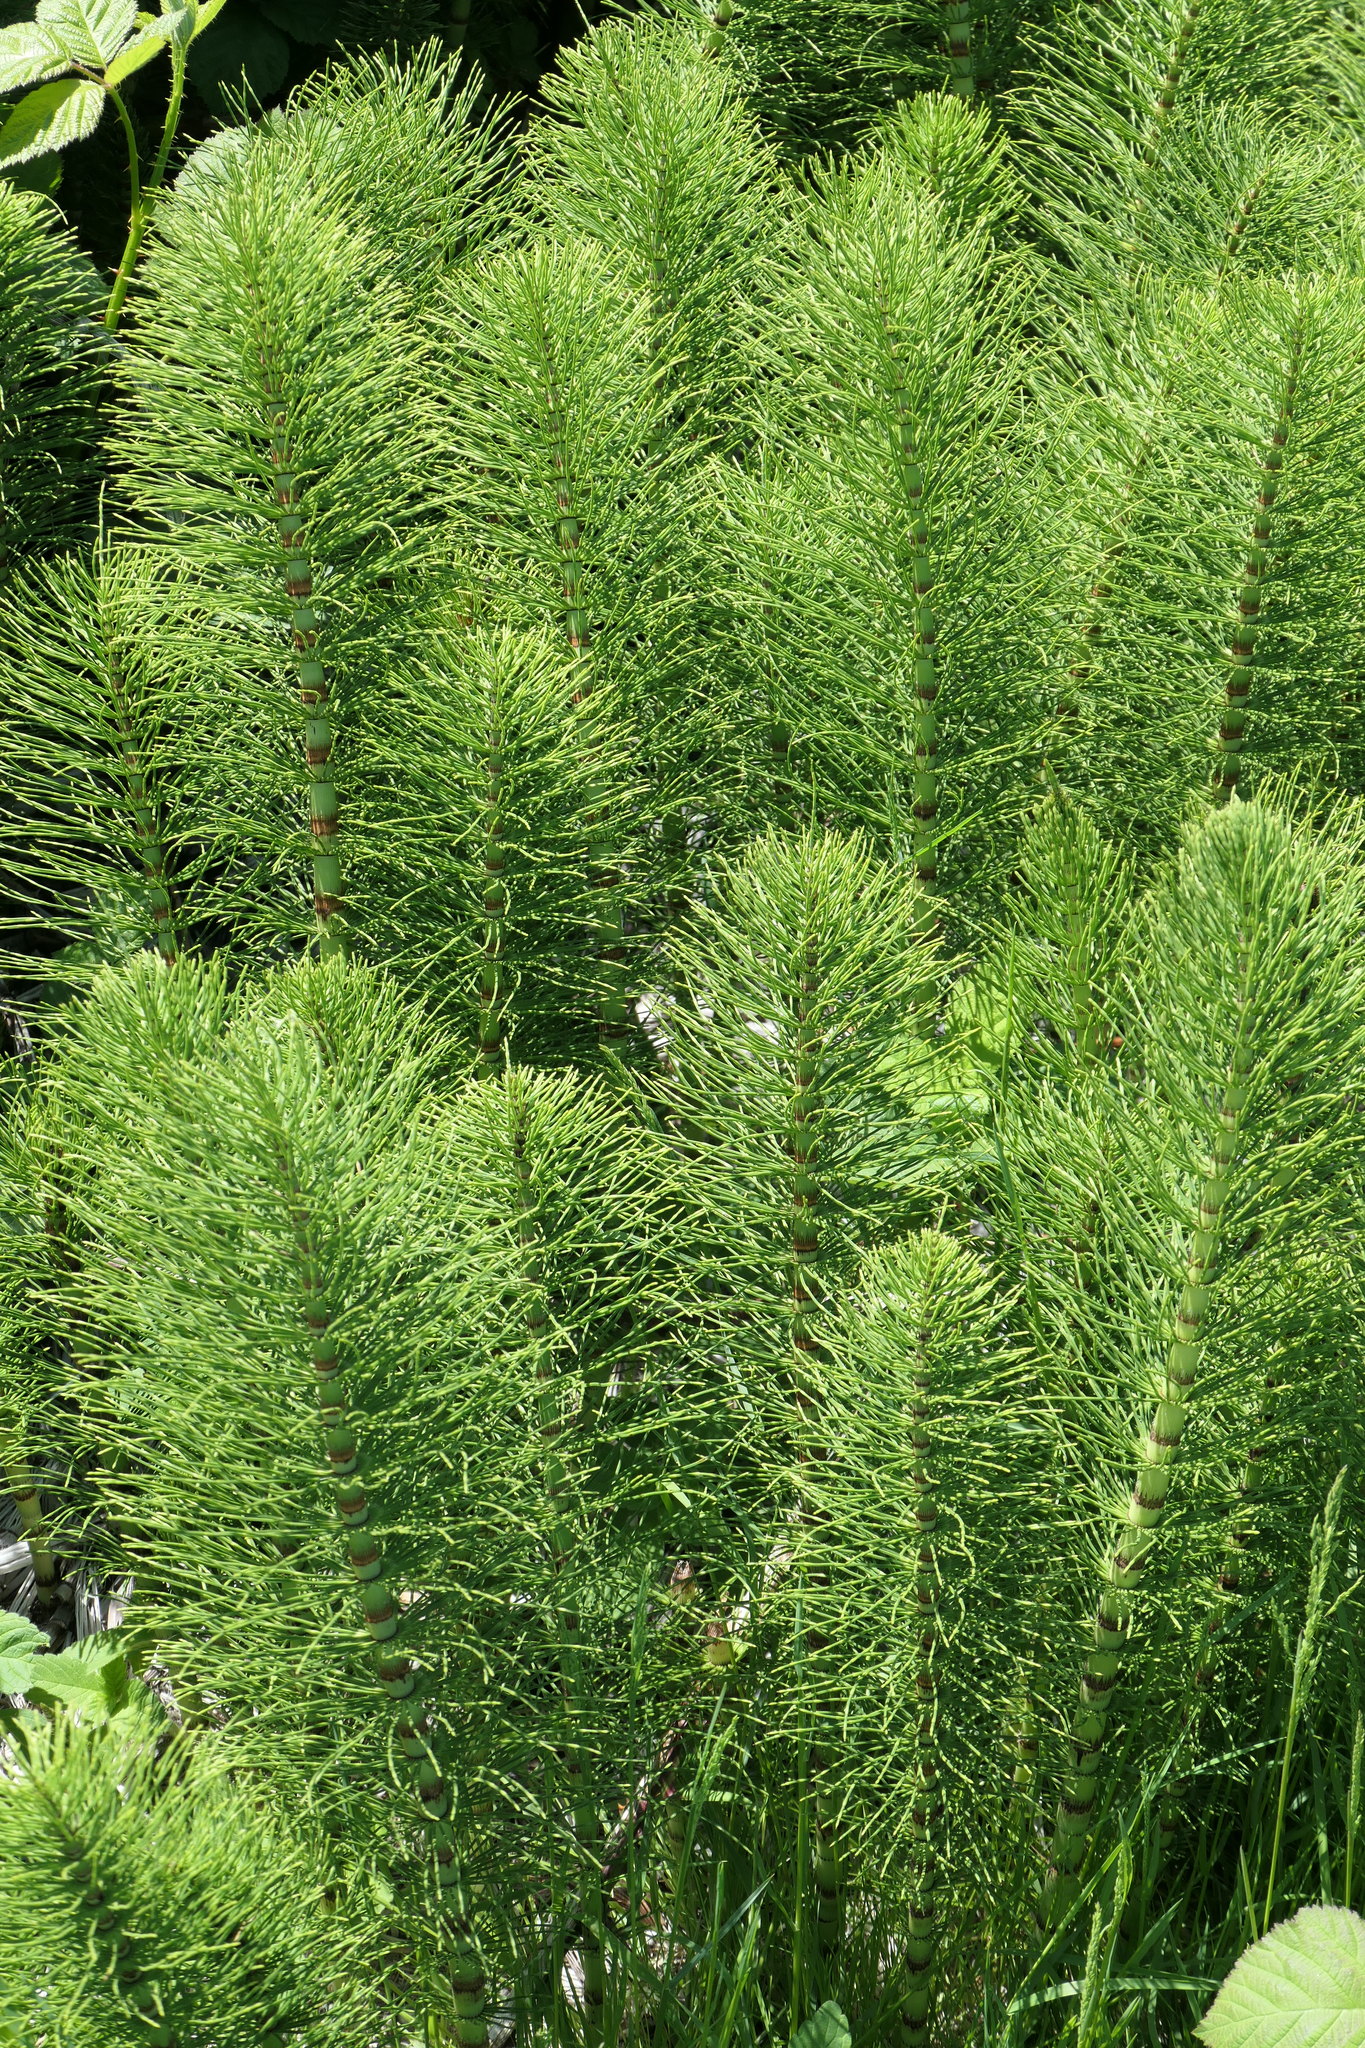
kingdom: Plantae
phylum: Tracheophyta
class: Polypodiopsida
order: Equisetales
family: Equisetaceae
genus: Equisetum
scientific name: Equisetum telmateia
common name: Great horsetail
